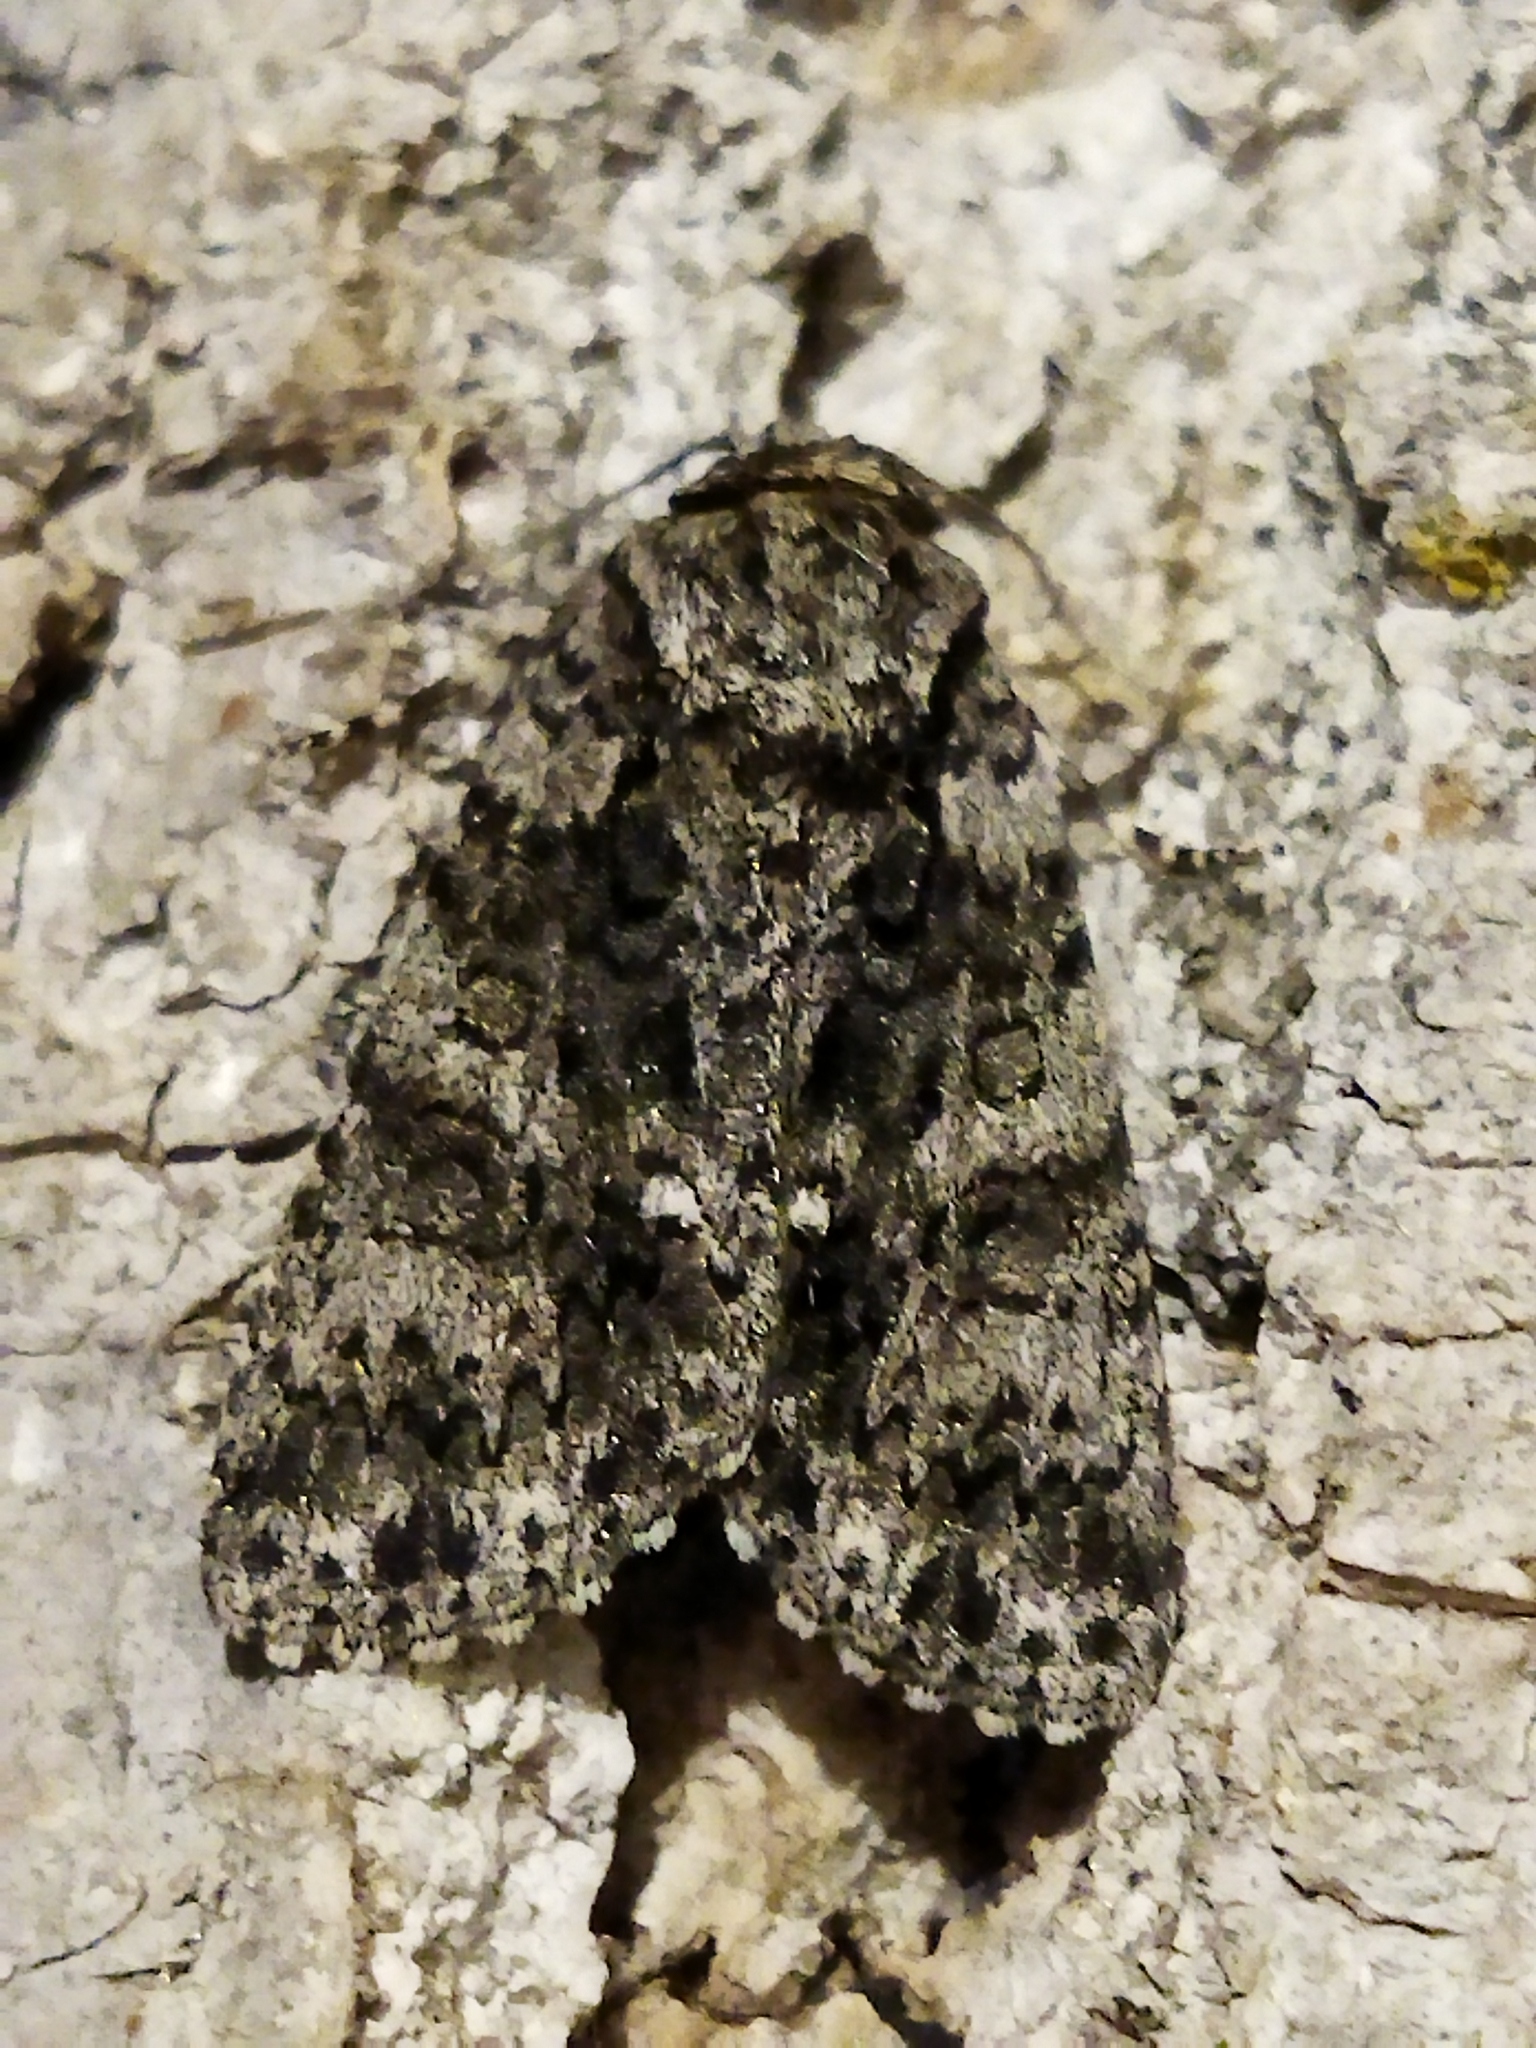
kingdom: Animalia
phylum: Arthropoda
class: Insecta
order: Lepidoptera
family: Noctuidae
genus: Acronicta
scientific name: Acronicta rumicis
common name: Knot grass
